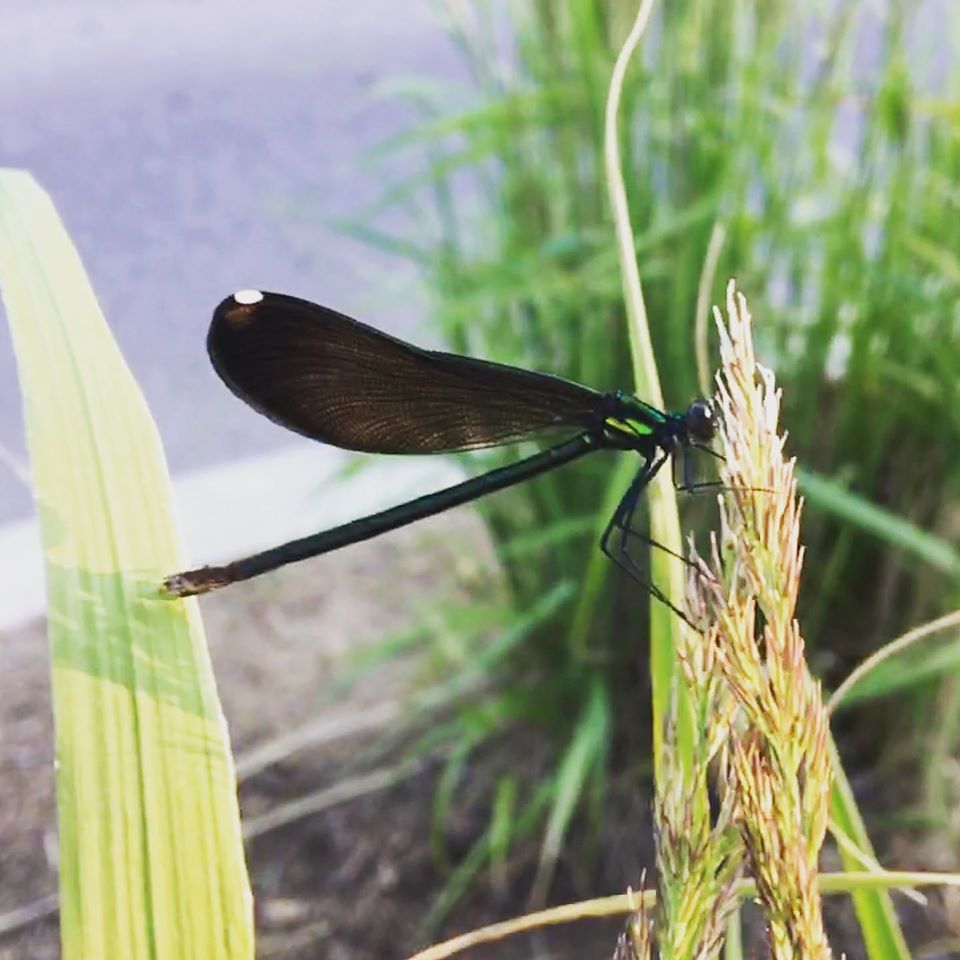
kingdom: Animalia
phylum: Arthropoda
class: Insecta
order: Odonata
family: Calopterygidae
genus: Calopteryx
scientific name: Calopteryx maculata
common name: Ebony jewelwing
